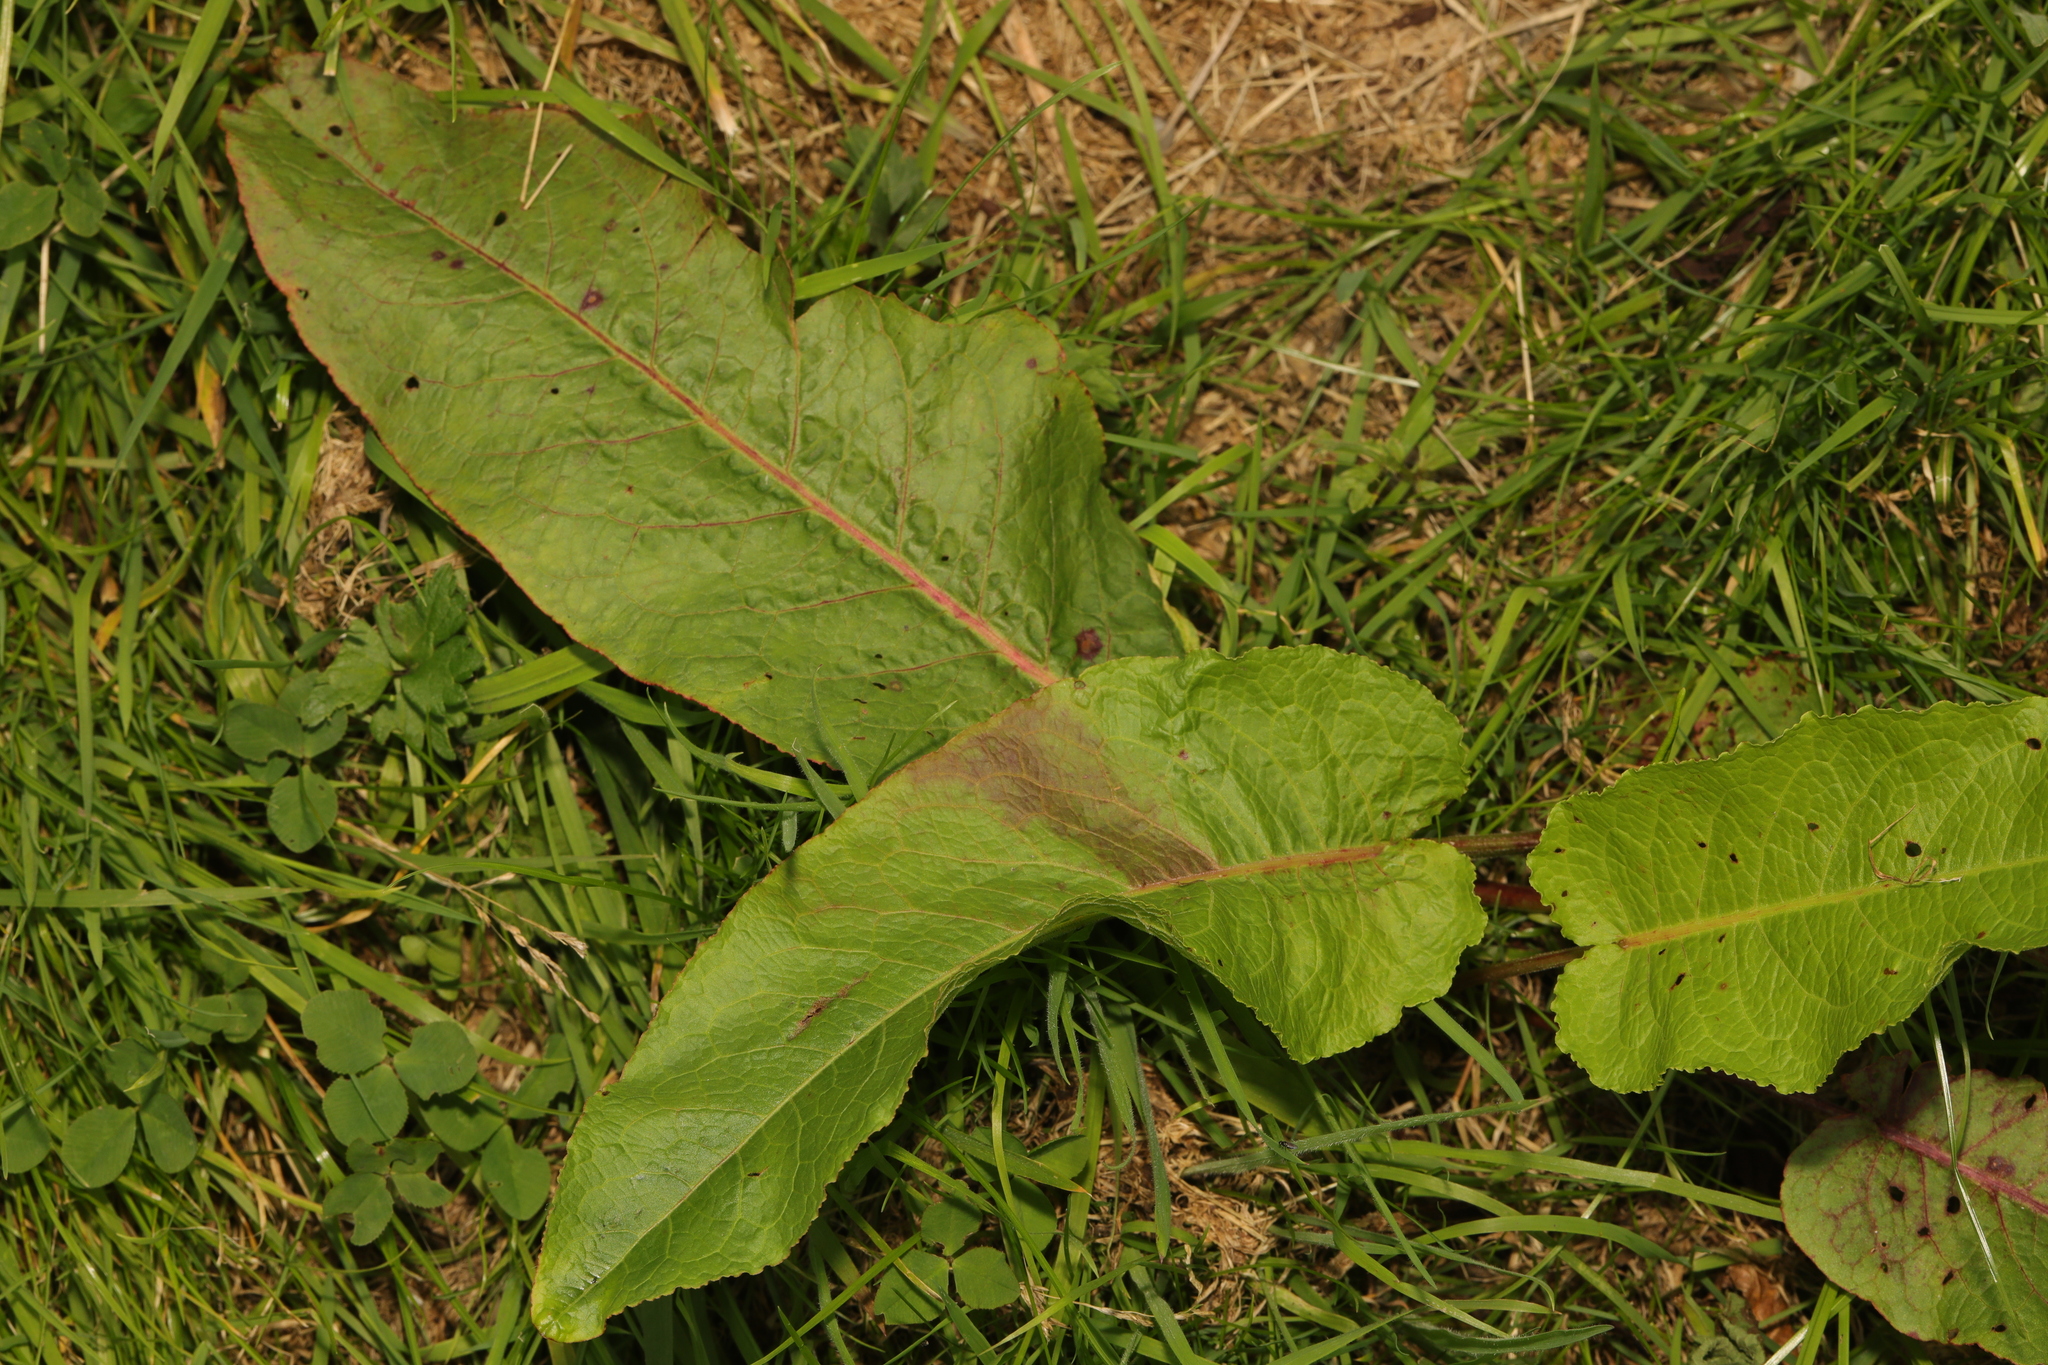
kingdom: Plantae
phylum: Tracheophyta
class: Magnoliopsida
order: Caryophyllales
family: Polygonaceae
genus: Rumex
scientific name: Rumex obtusifolius
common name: Bitter dock
